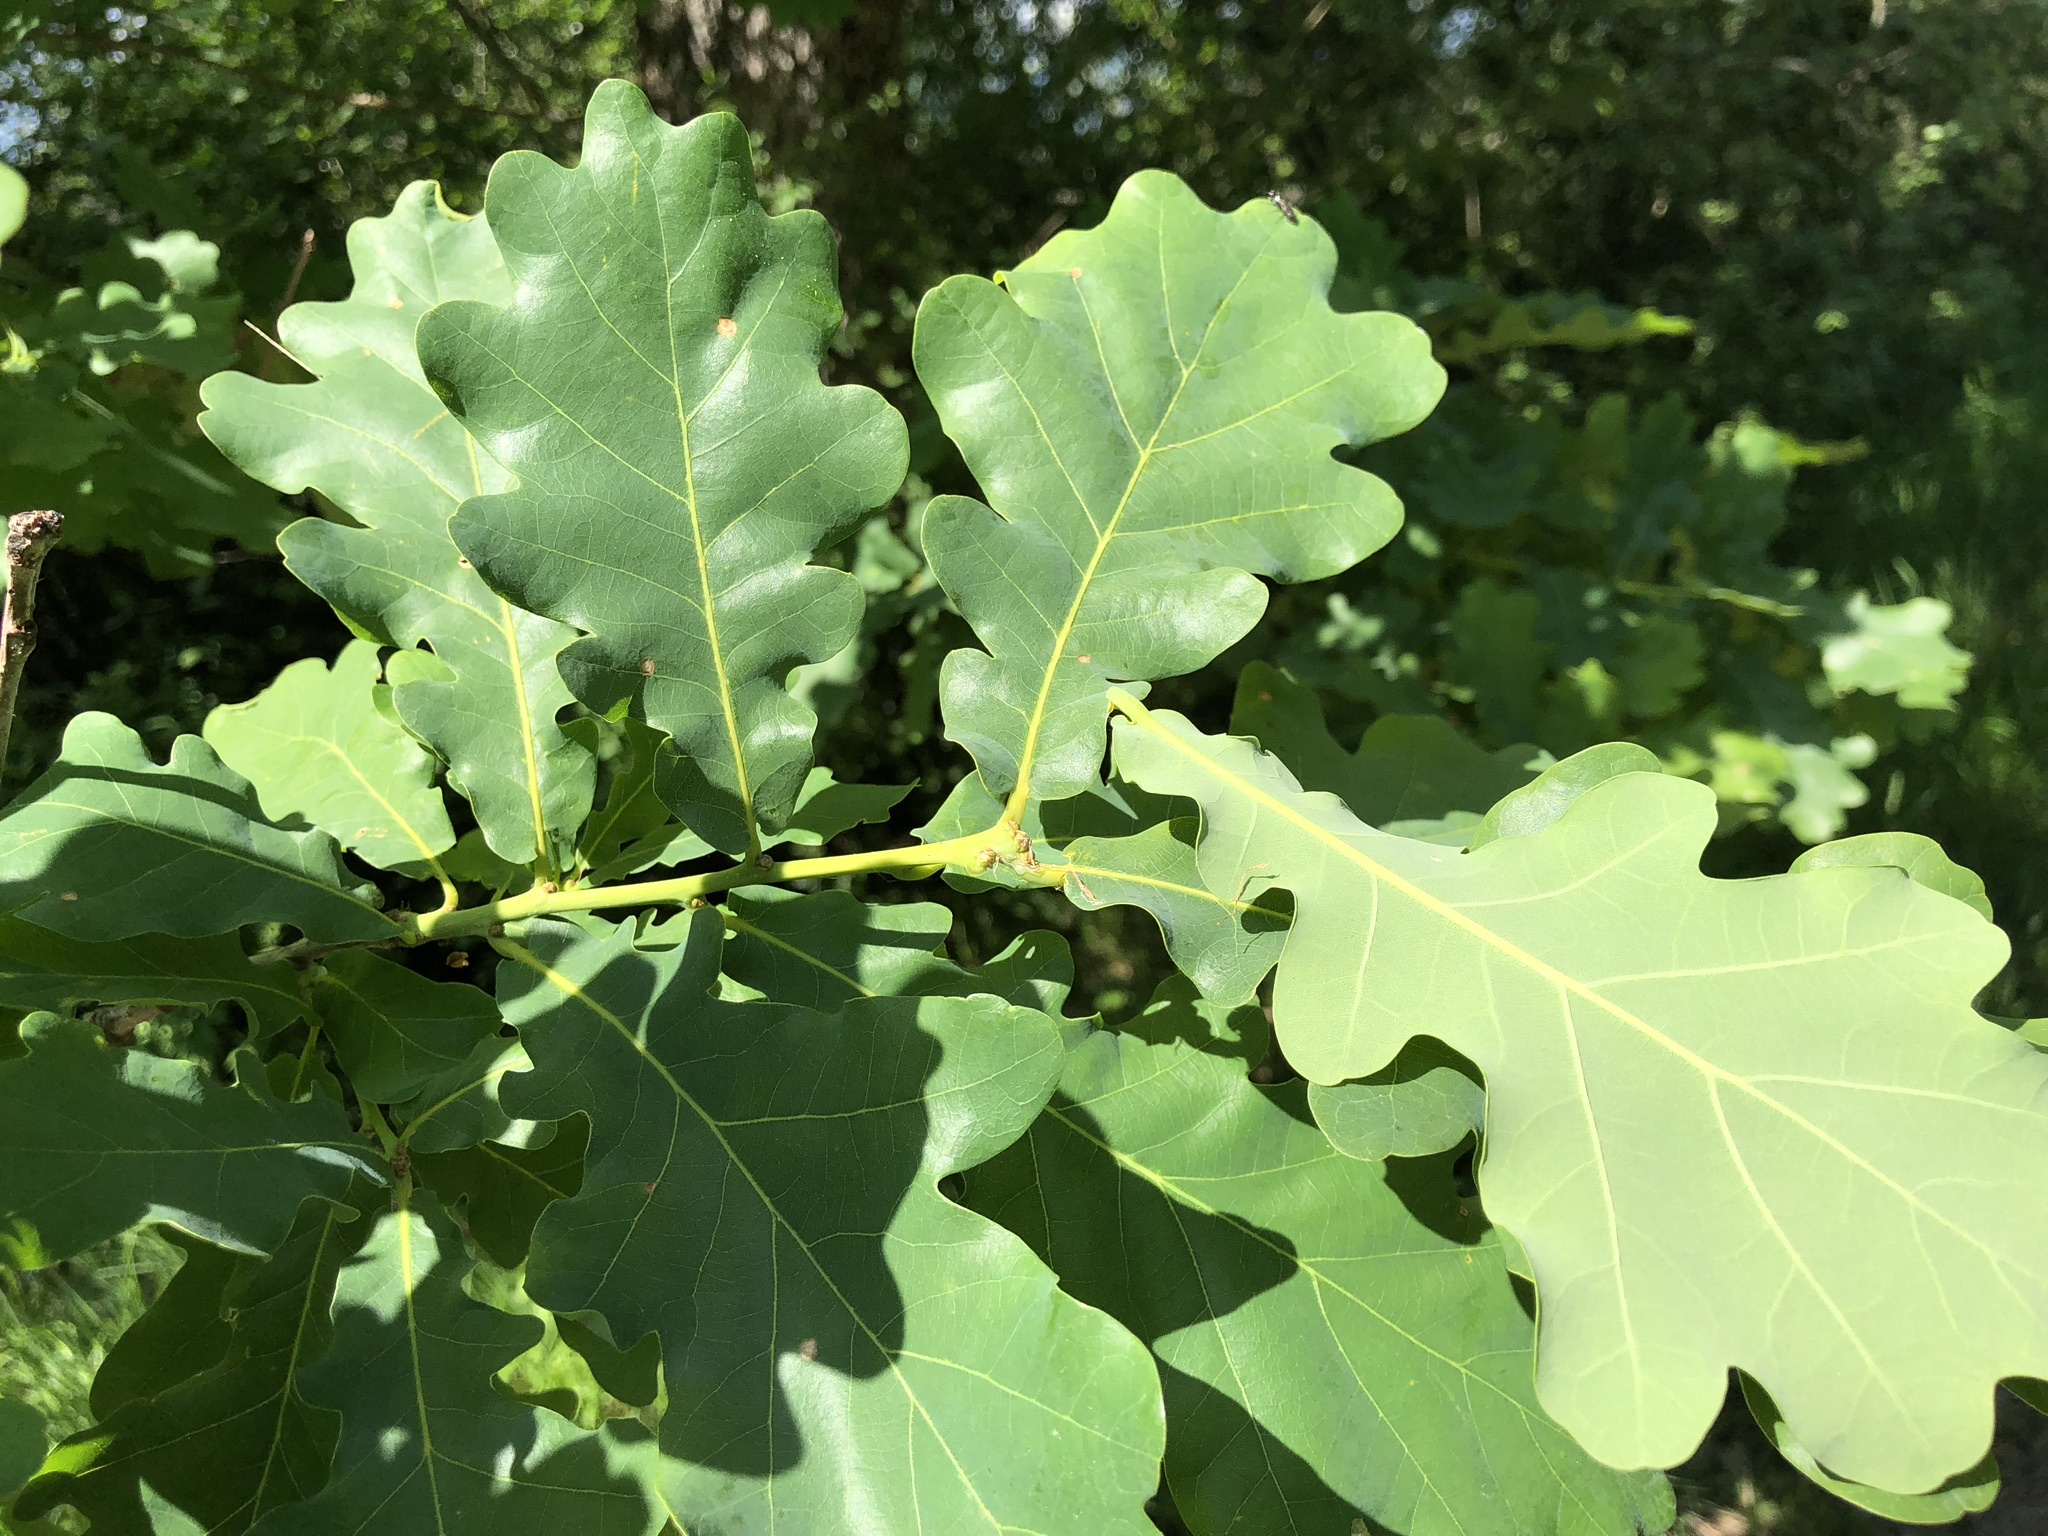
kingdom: Plantae
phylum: Tracheophyta
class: Magnoliopsida
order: Fagales
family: Fagaceae
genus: Quercus
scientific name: Quercus robur
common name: Pedunculate oak
